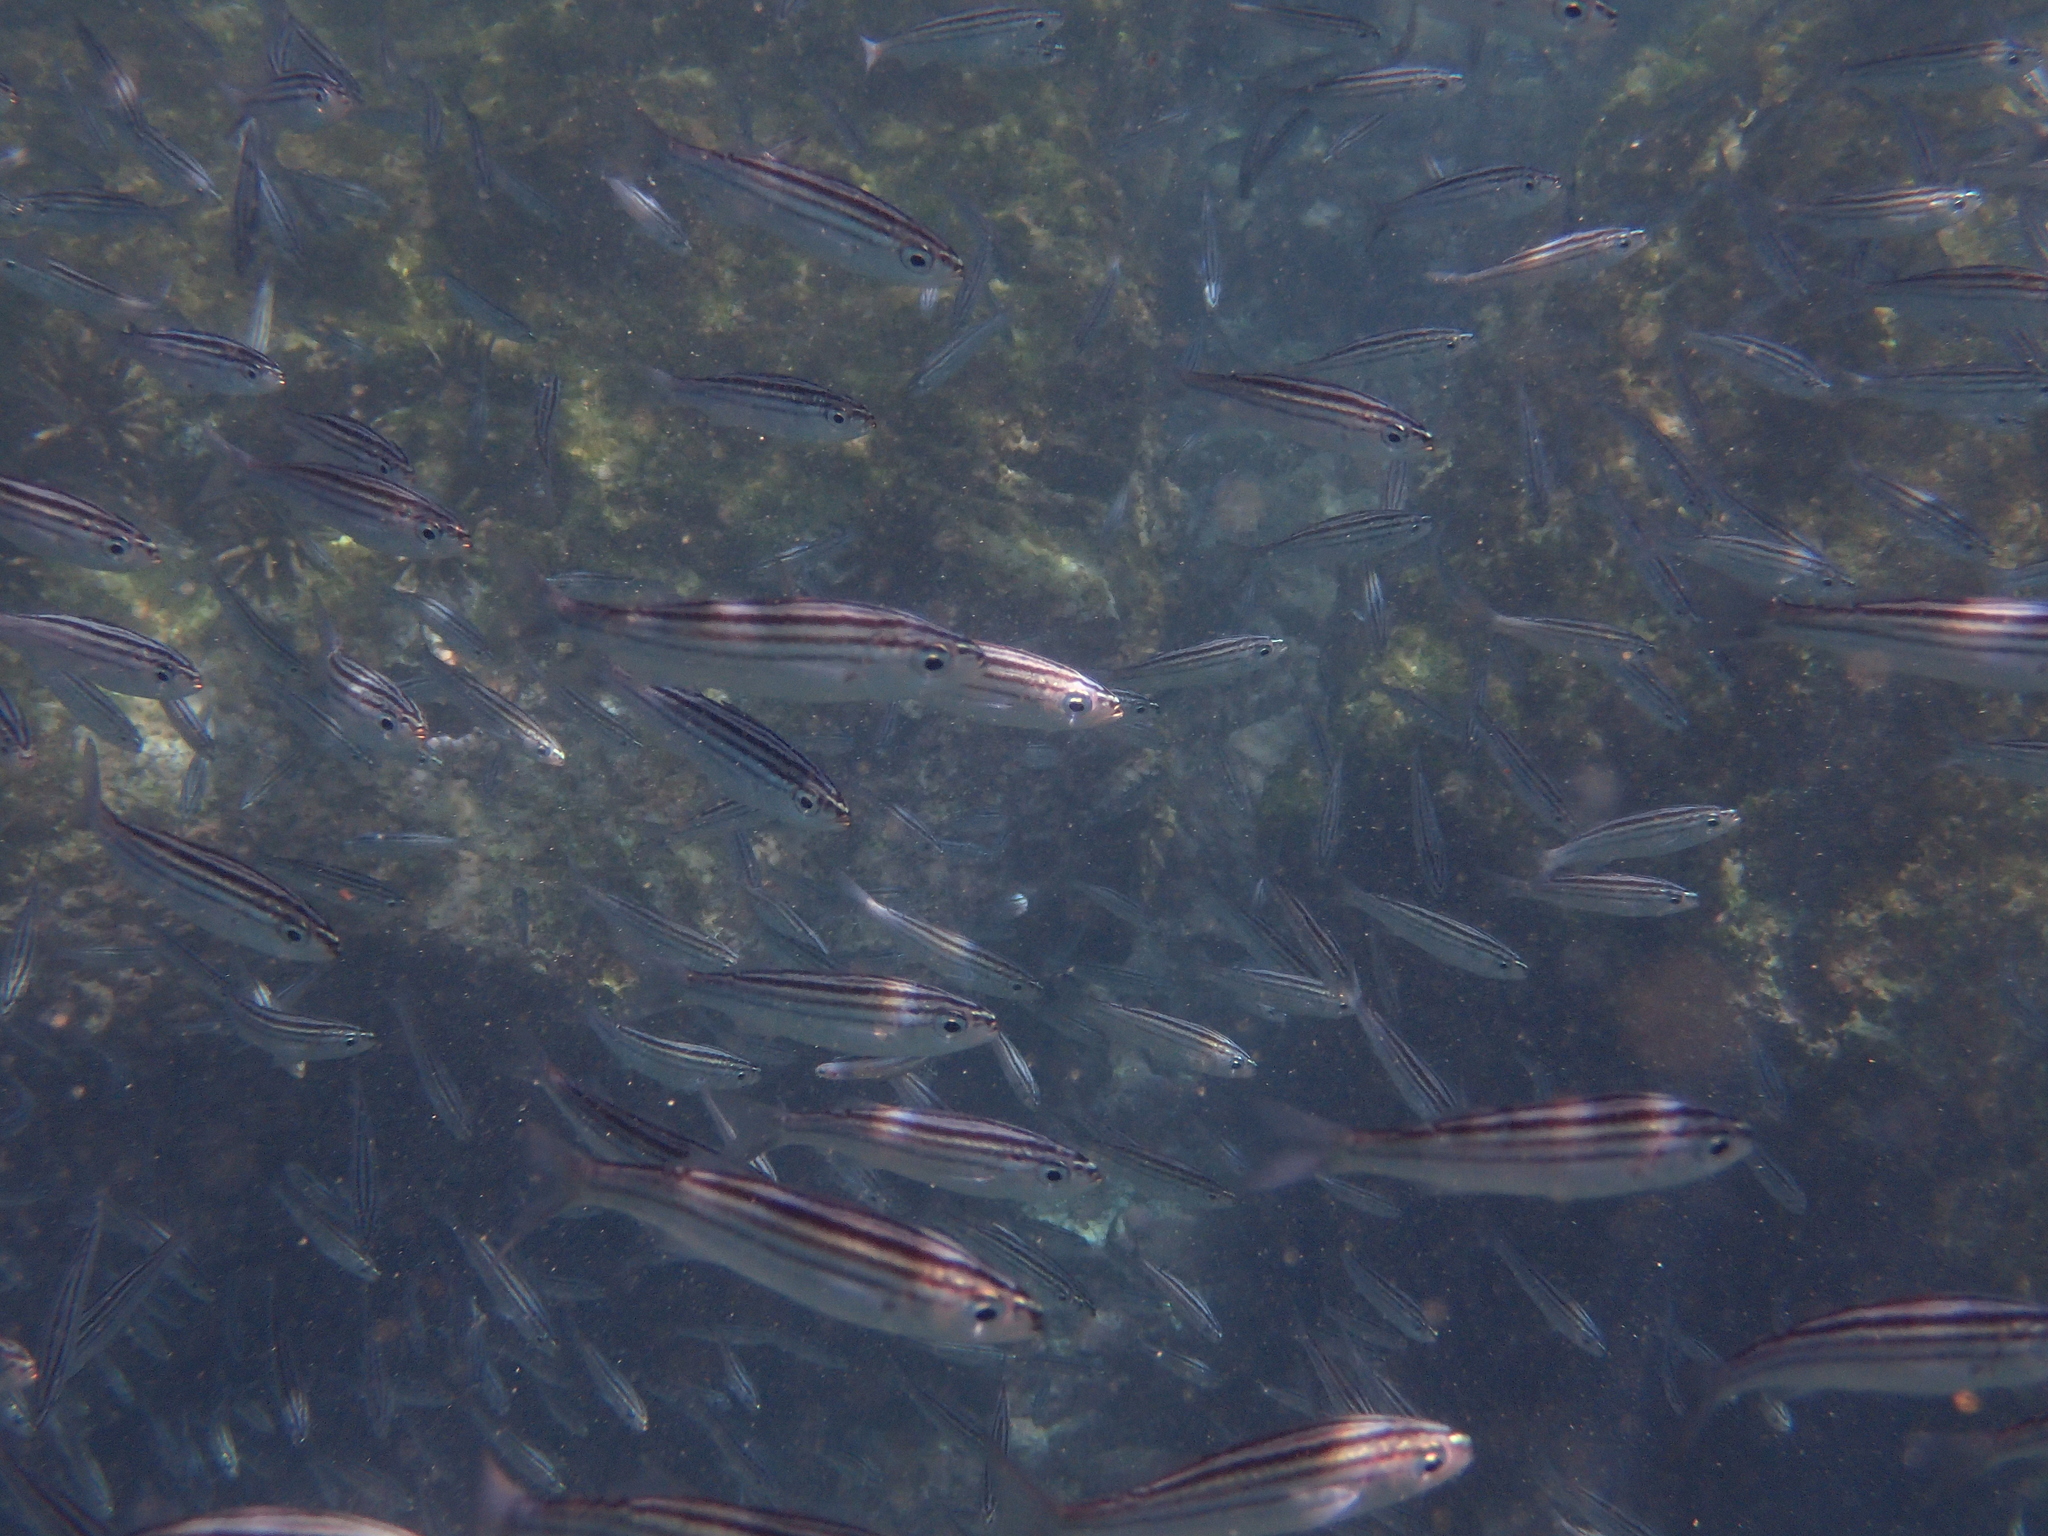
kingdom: Animalia
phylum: Chordata
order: Perciformes
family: Haemulidae
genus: Xenocys
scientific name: Xenocys jessiae
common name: Black-striped salema
